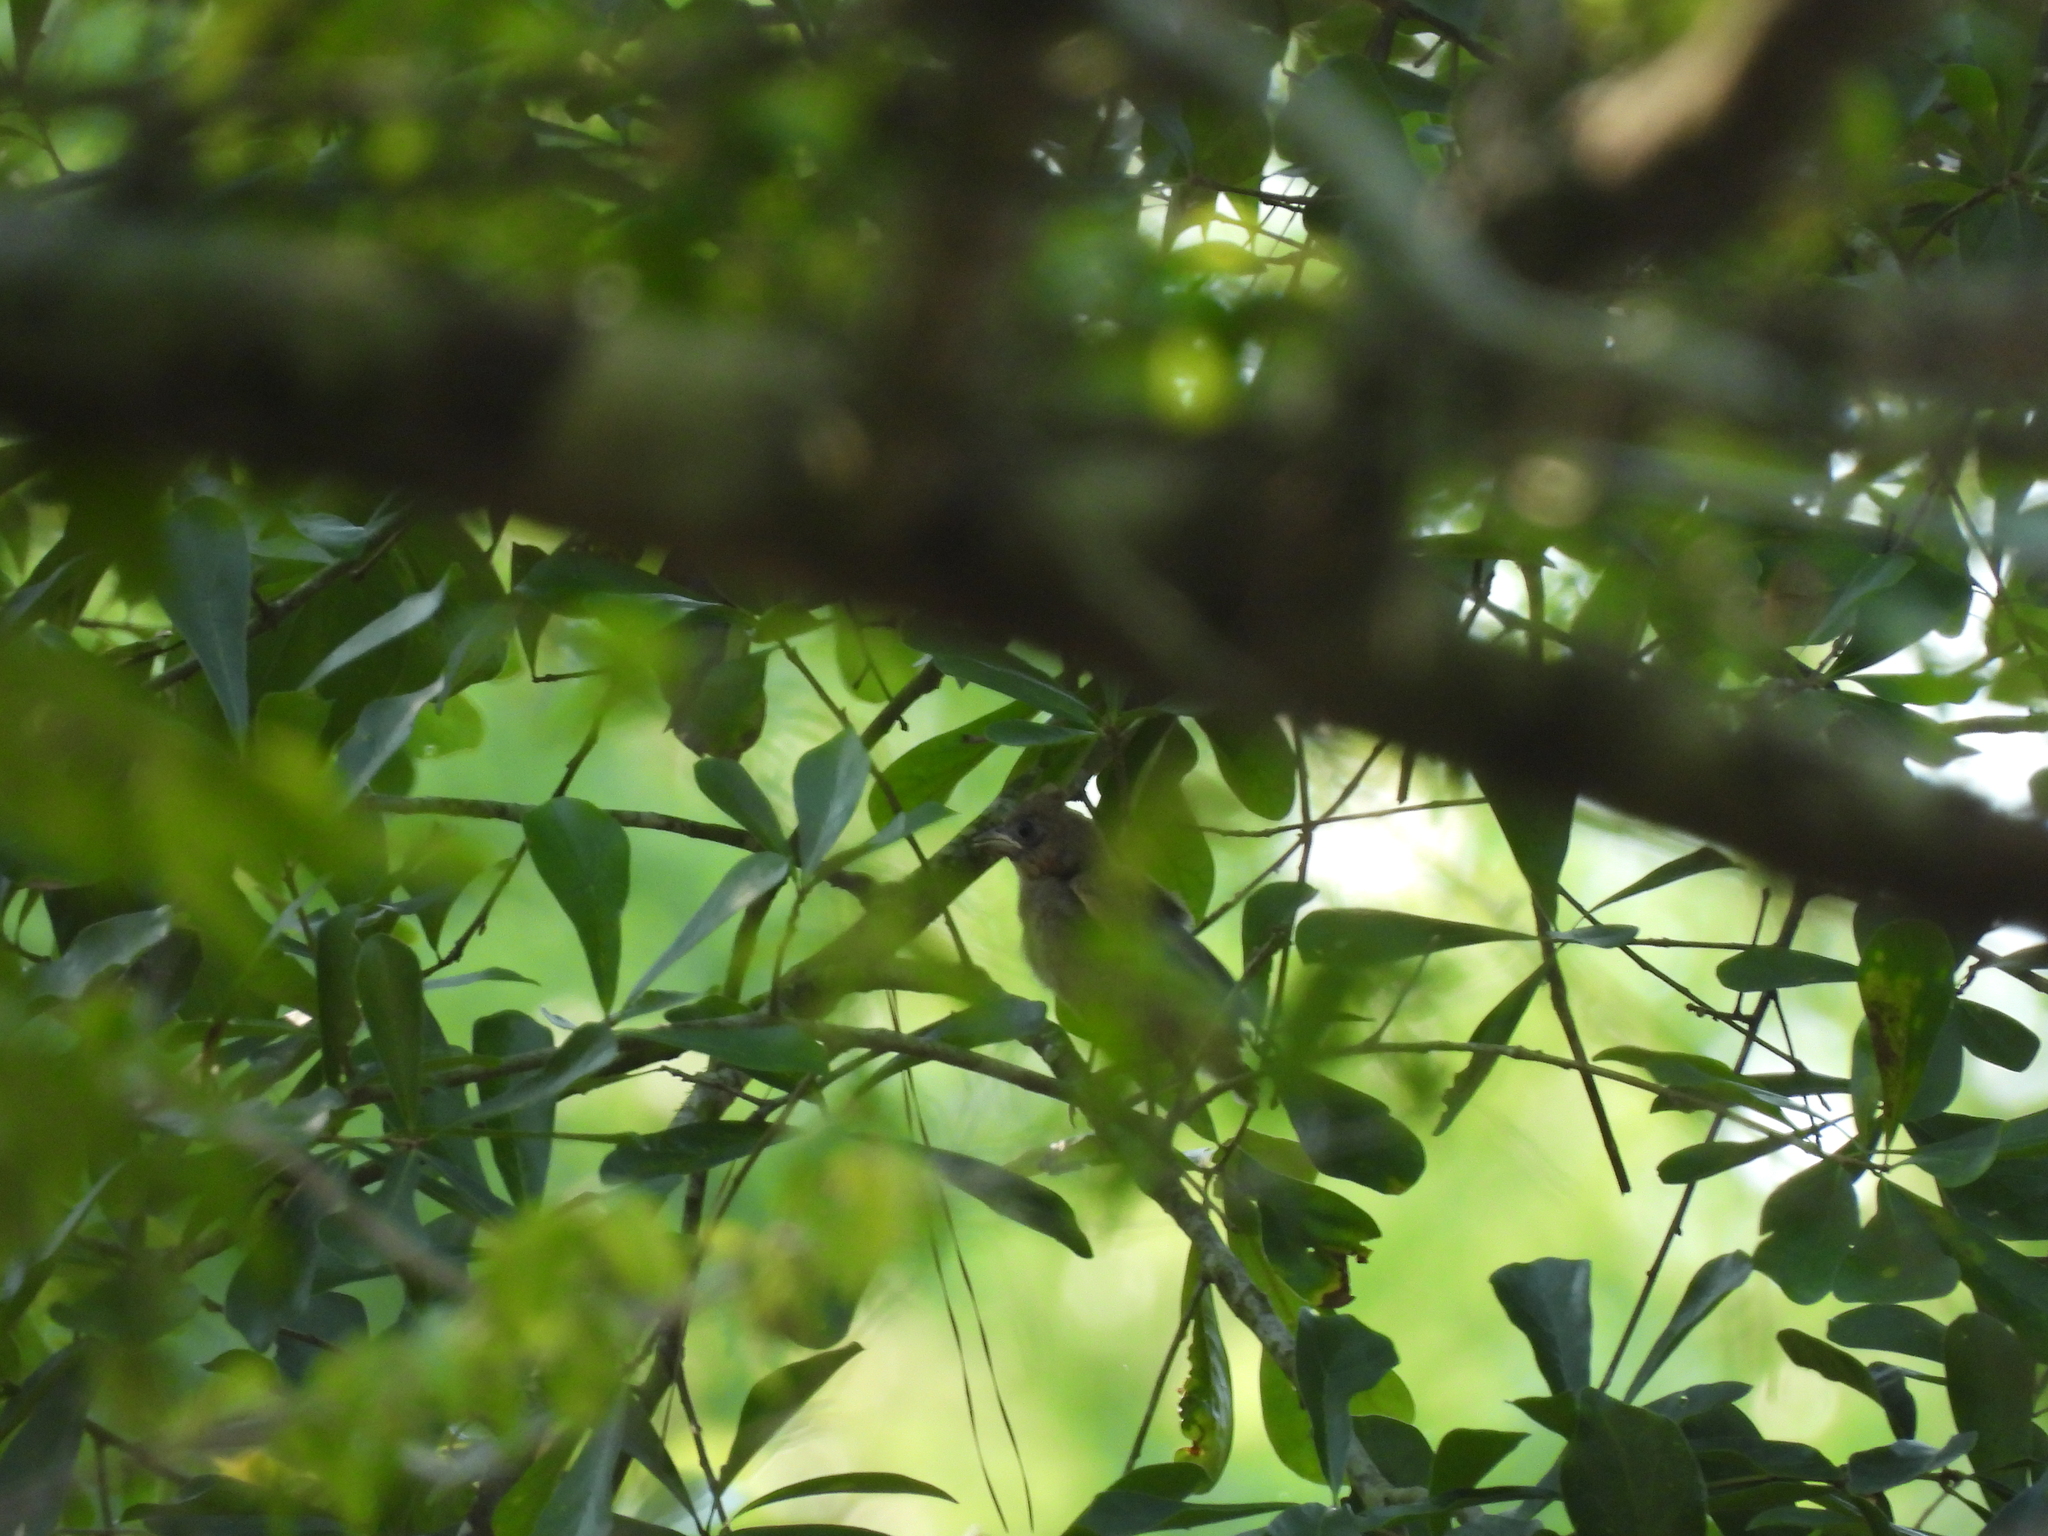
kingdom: Animalia
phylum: Chordata
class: Aves
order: Passeriformes
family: Cardinalidae
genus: Cardinalis
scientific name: Cardinalis cardinalis
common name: Northern cardinal
